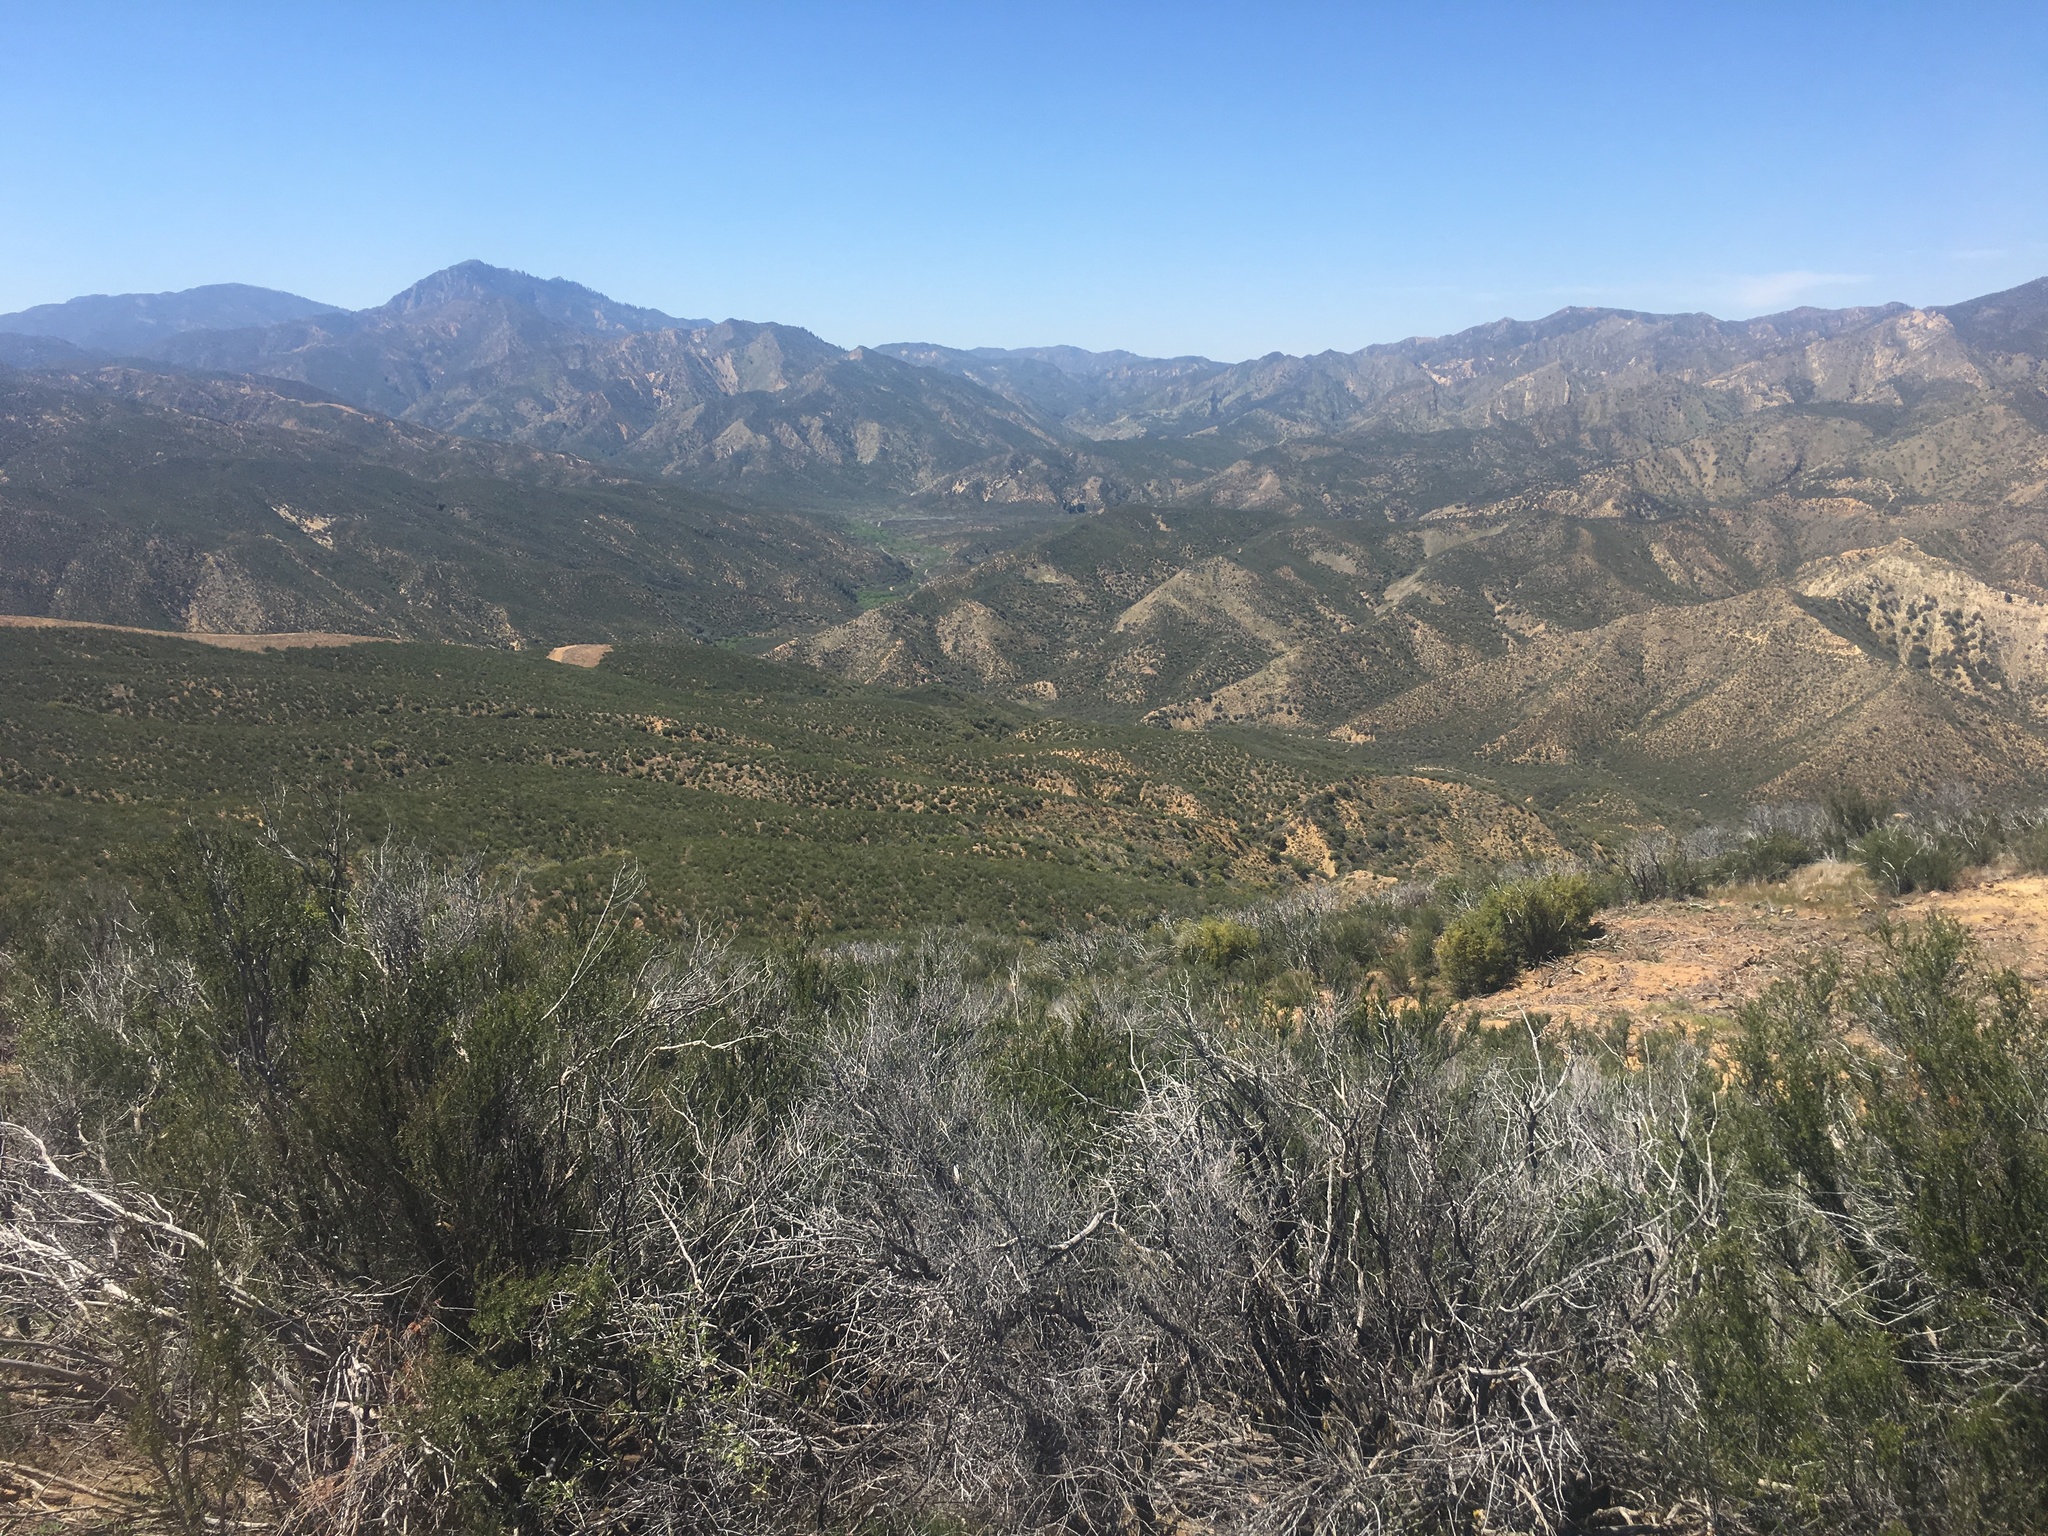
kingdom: Plantae
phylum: Tracheophyta
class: Magnoliopsida
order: Rosales
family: Rosaceae
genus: Adenostoma
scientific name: Adenostoma fasciculatum
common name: Chamise
